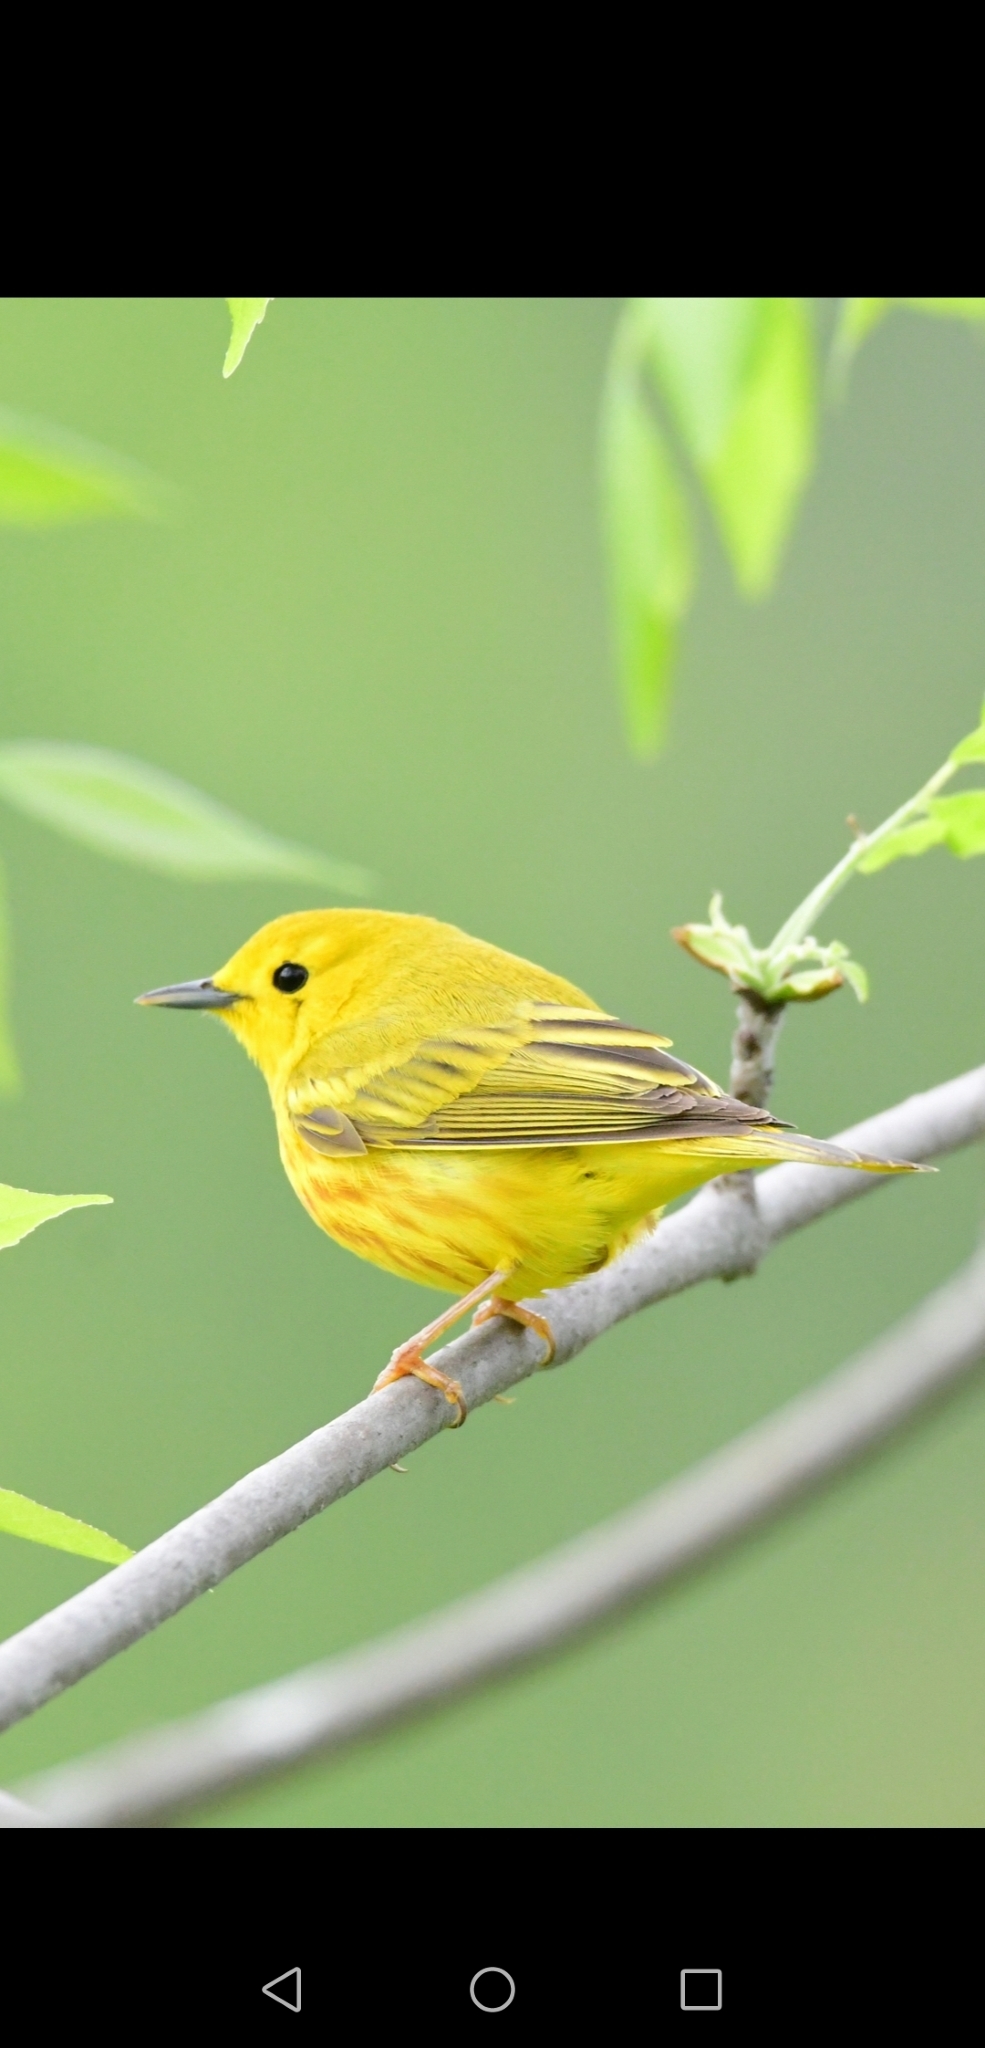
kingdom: Animalia
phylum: Chordata
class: Aves
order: Passeriformes
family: Parulidae
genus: Setophaga
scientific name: Setophaga petechia
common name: Yellow warbler
